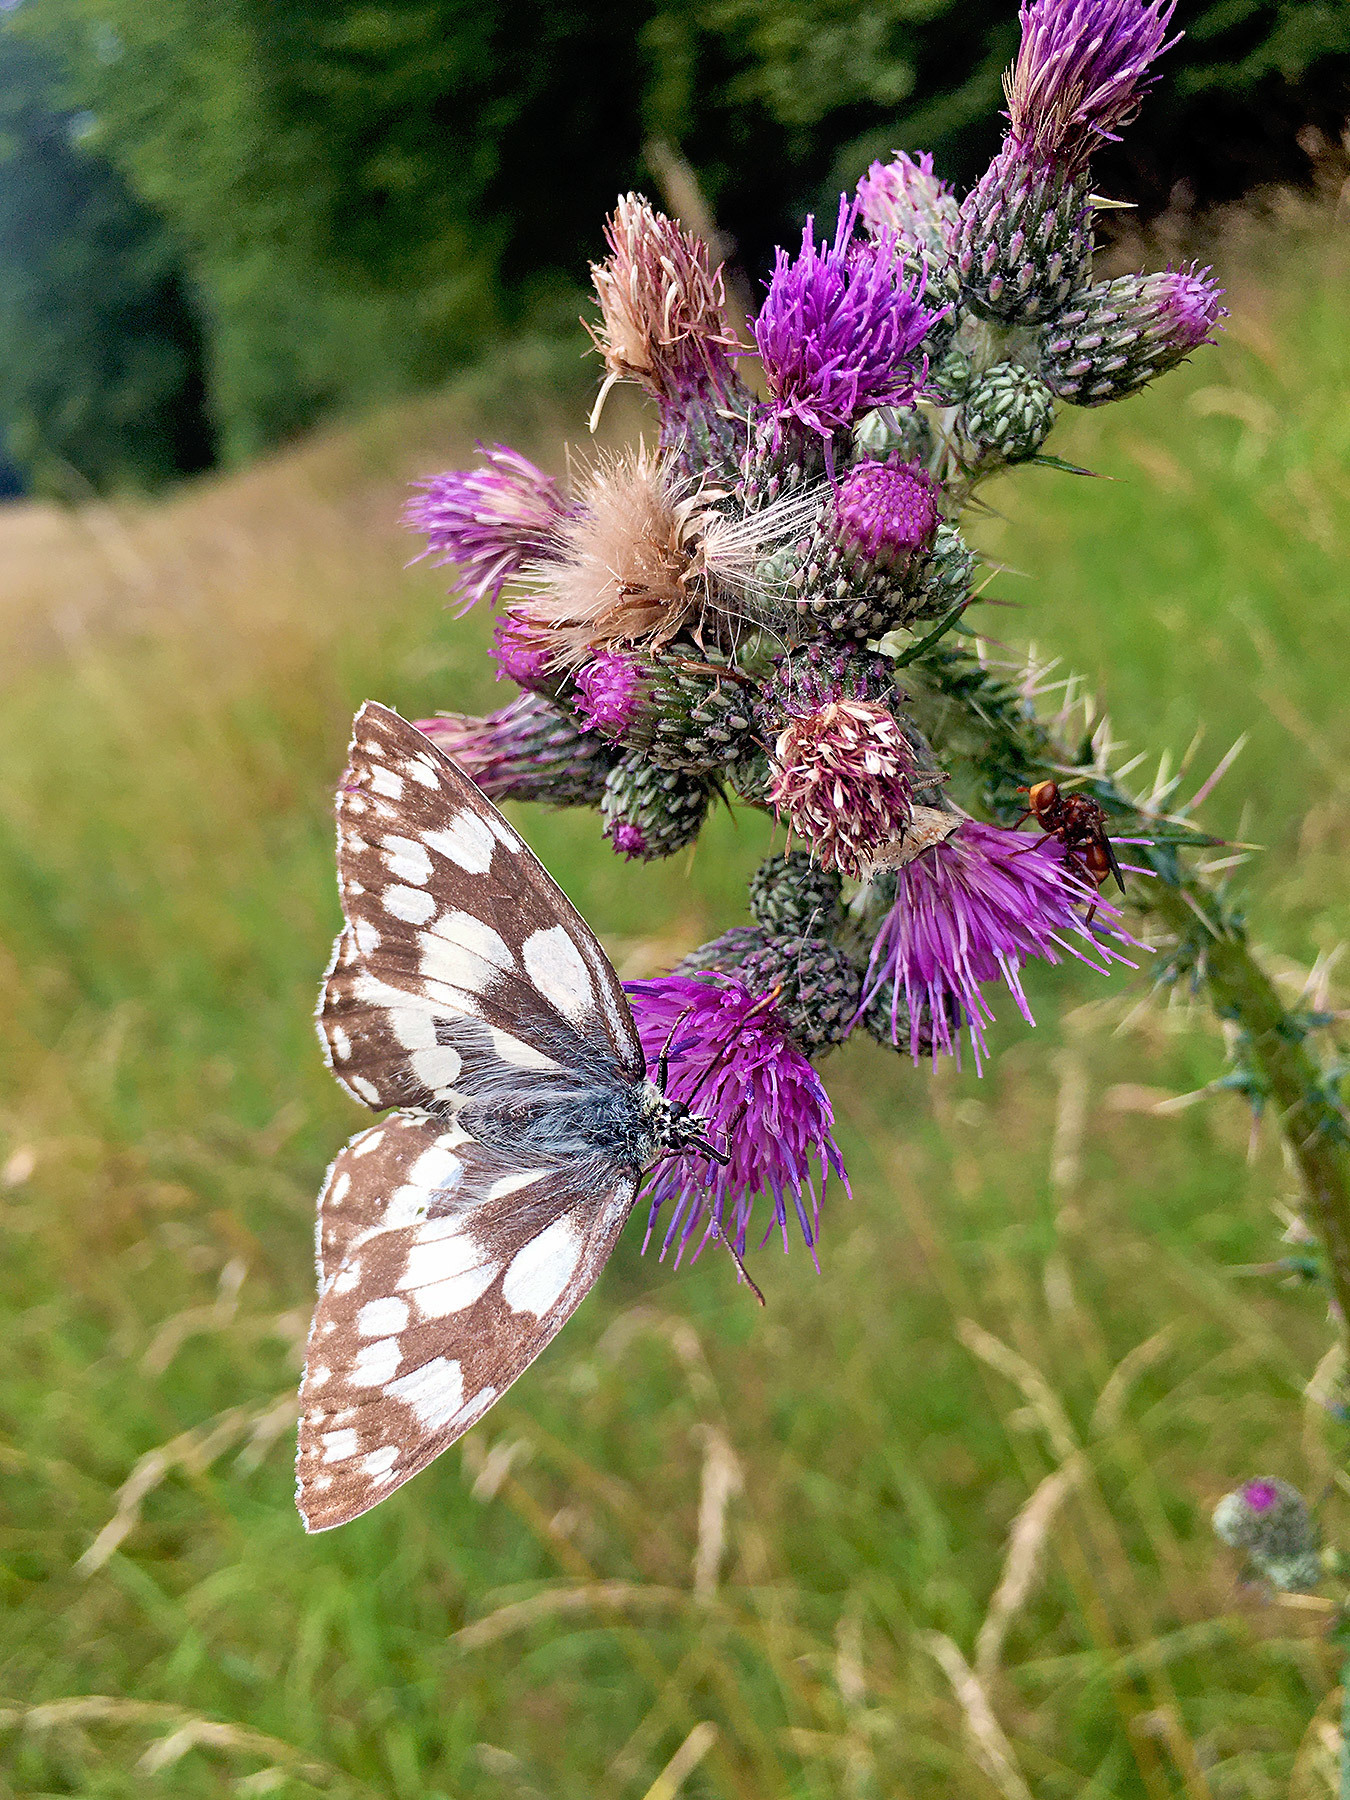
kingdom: Animalia
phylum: Arthropoda
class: Insecta
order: Lepidoptera
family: Nymphalidae
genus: Melanargia
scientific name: Melanargia galathea
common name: Marbled white
